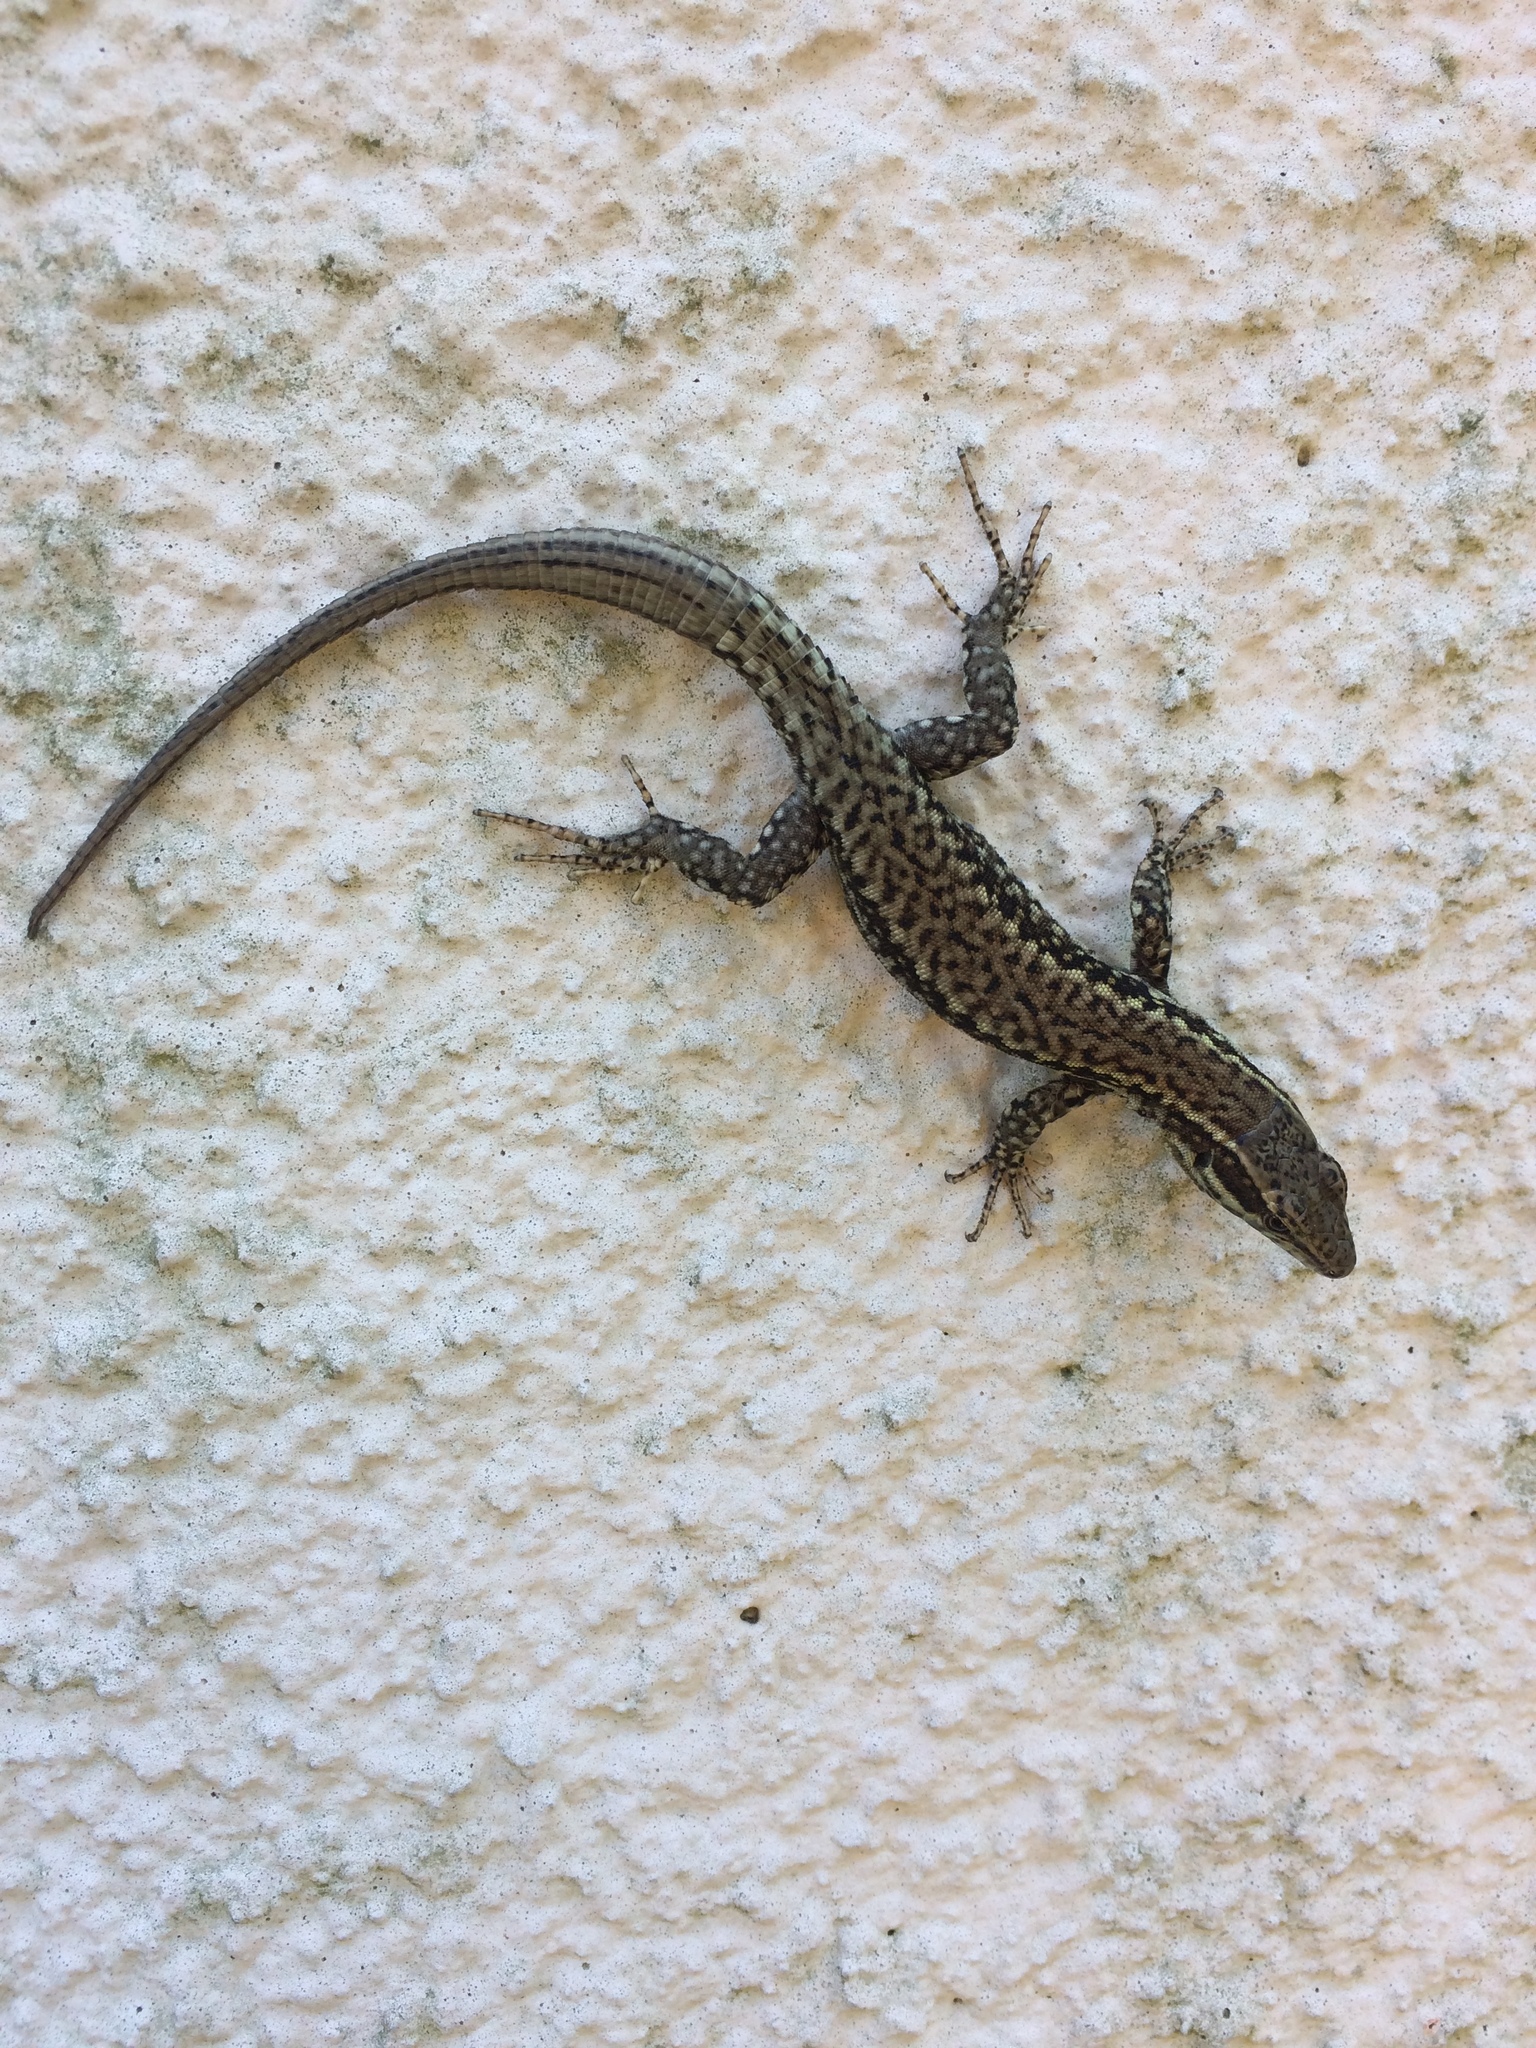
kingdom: Animalia
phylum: Chordata
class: Squamata
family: Lacertidae
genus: Podarcis
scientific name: Podarcis muralis
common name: Common wall lizard
